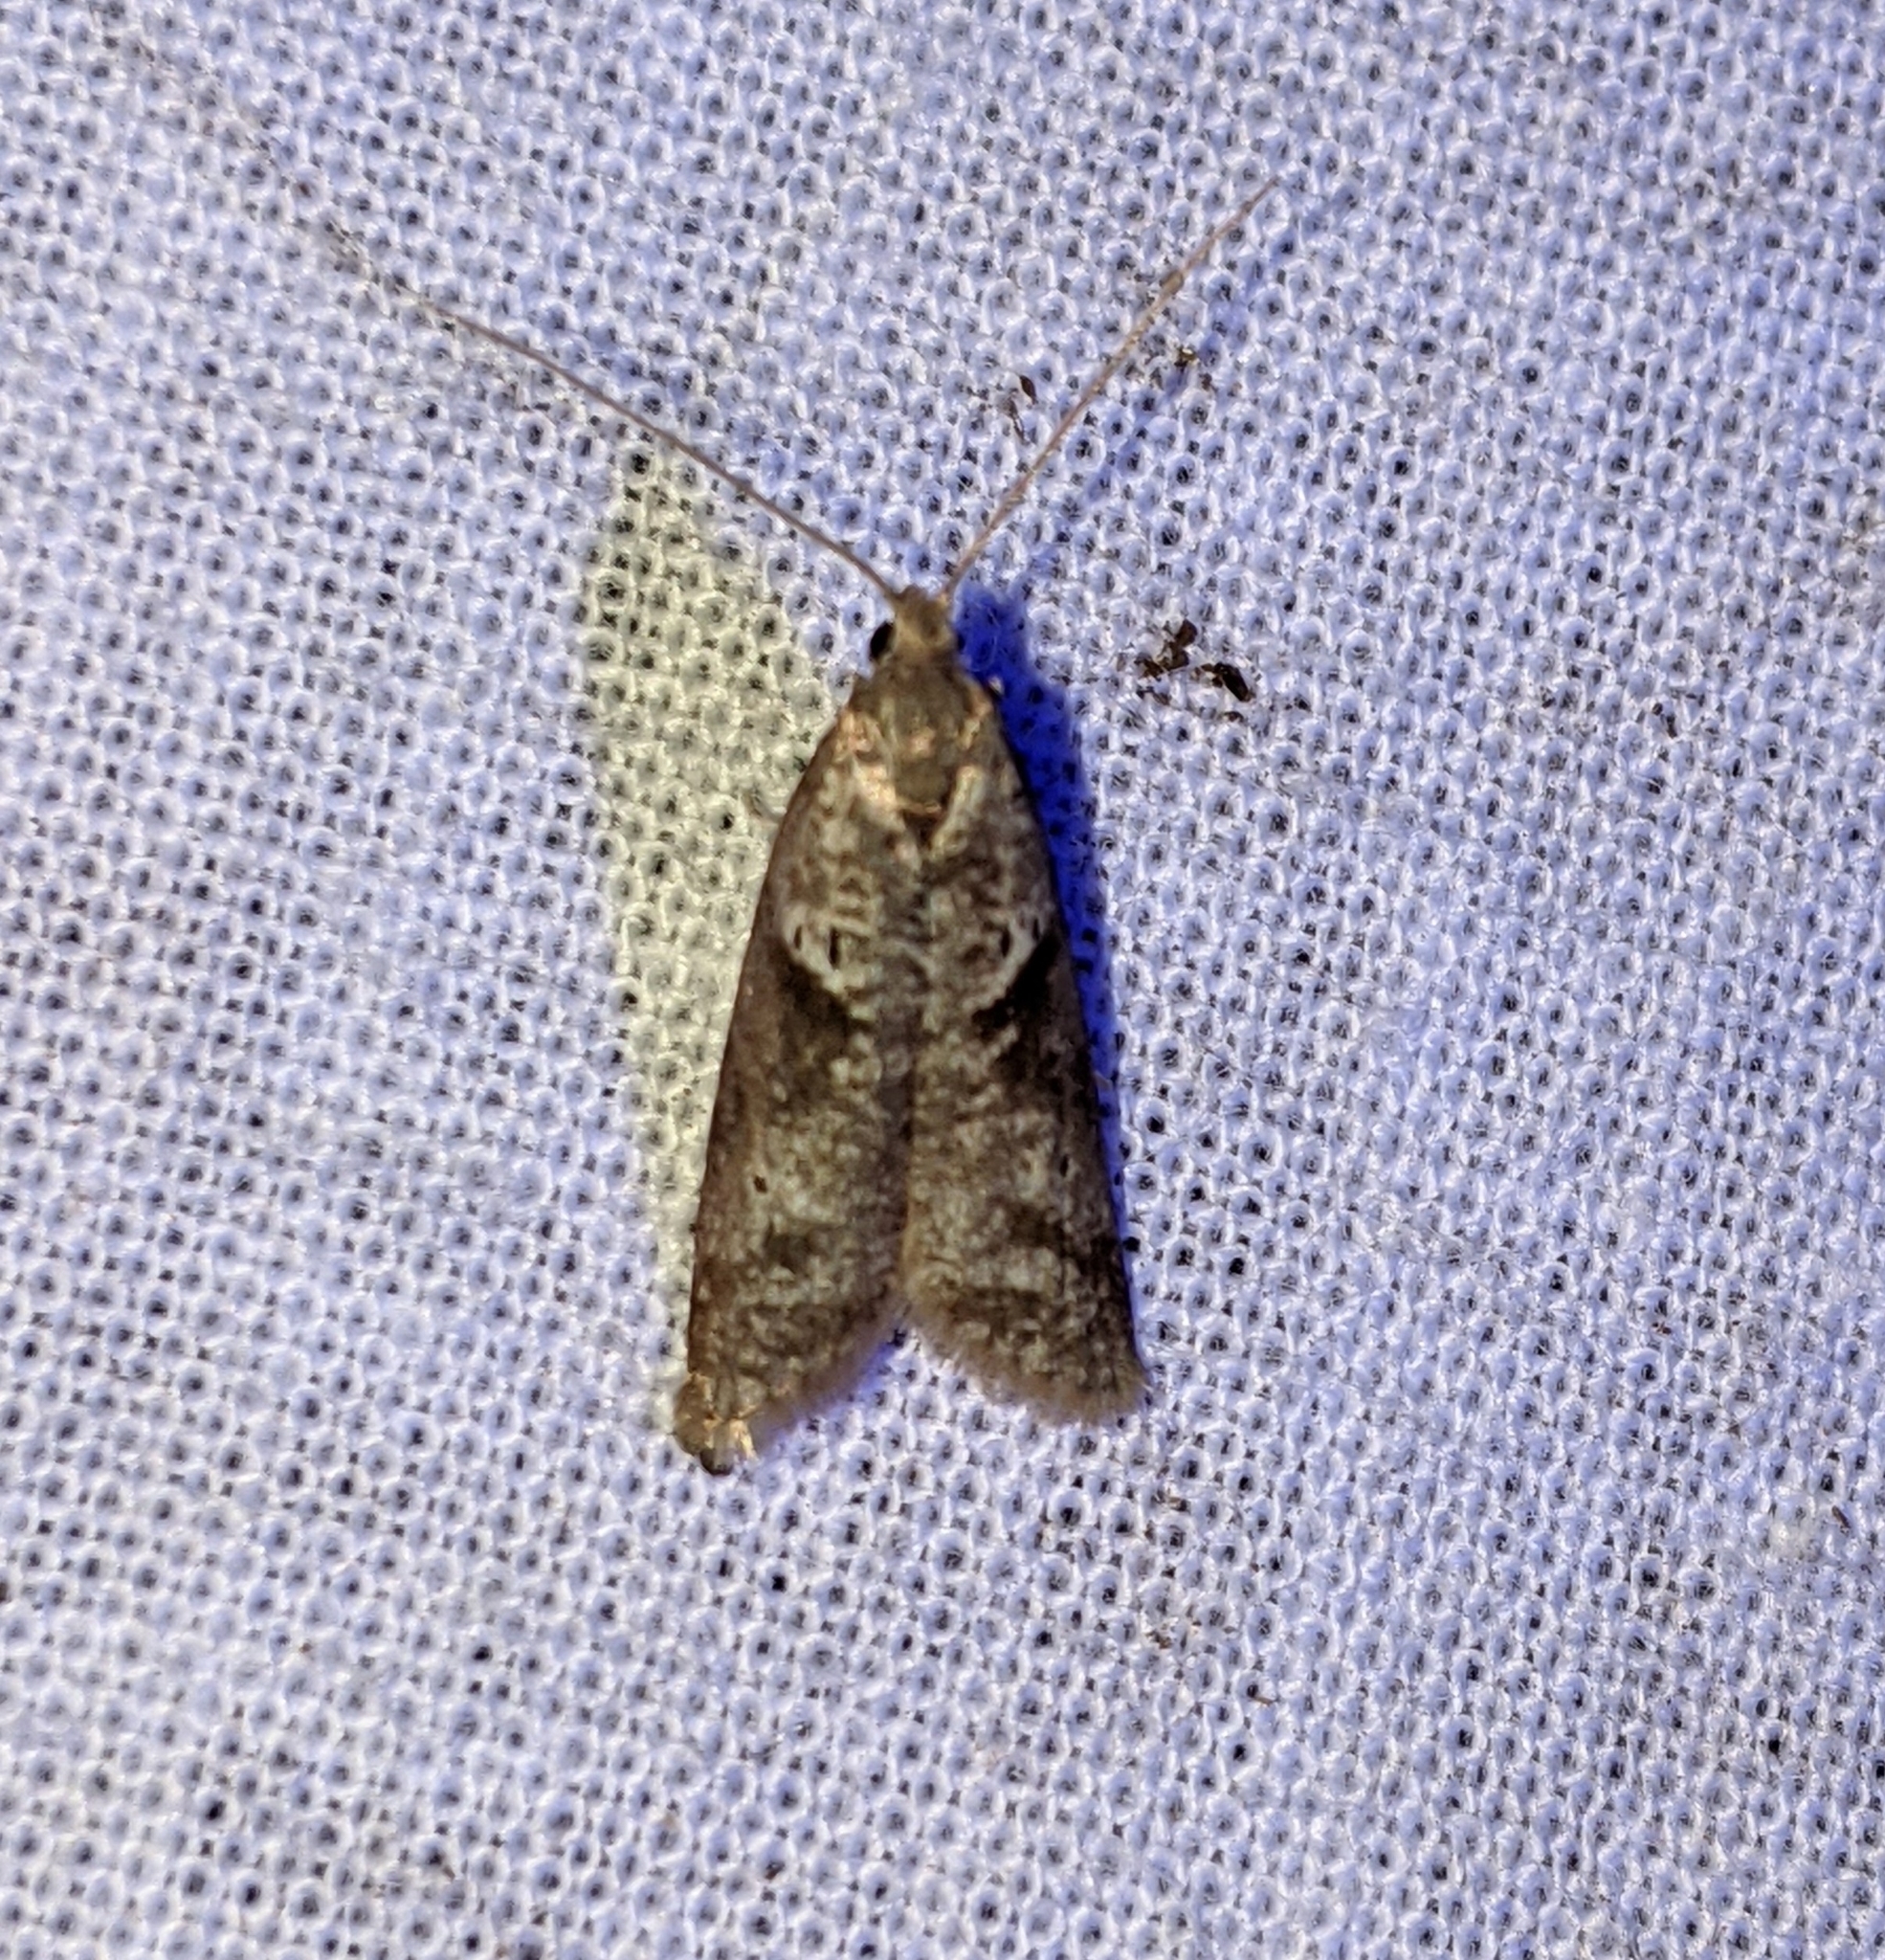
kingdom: Animalia
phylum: Arthropoda
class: Insecta
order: Lepidoptera
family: Copromorphidae
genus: Lotisma
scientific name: Lotisma trigonana
